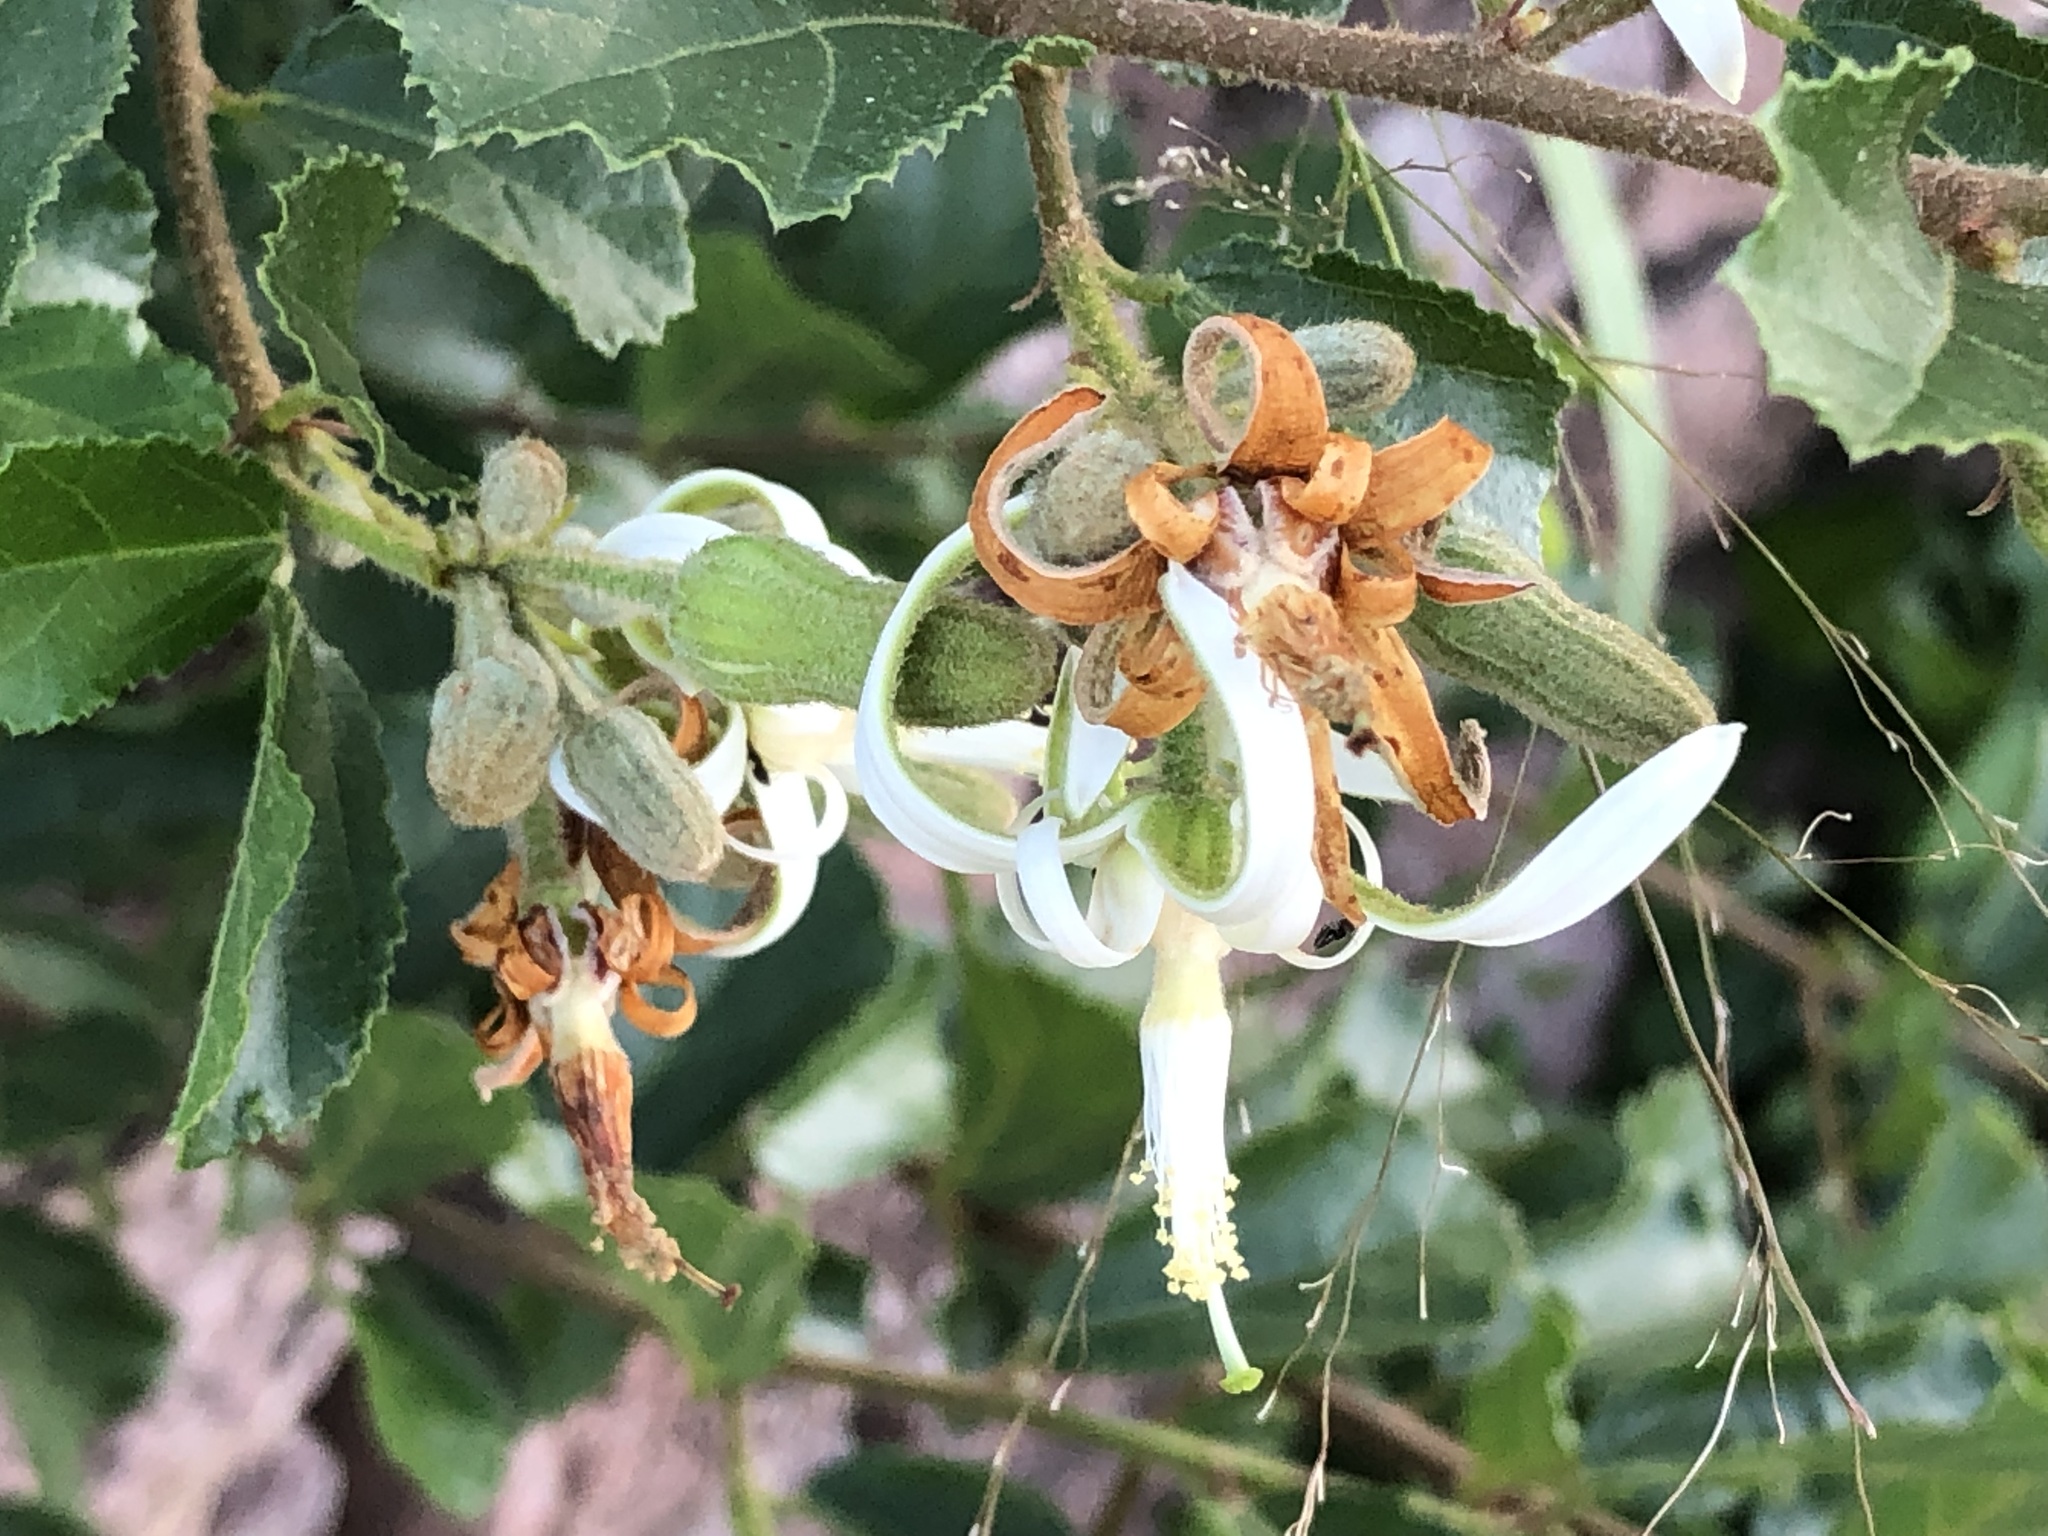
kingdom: Plantae
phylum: Tracheophyta
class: Magnoliopsida
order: Malvales
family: Malvaceae
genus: Grewia
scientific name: Grewia sulcata
